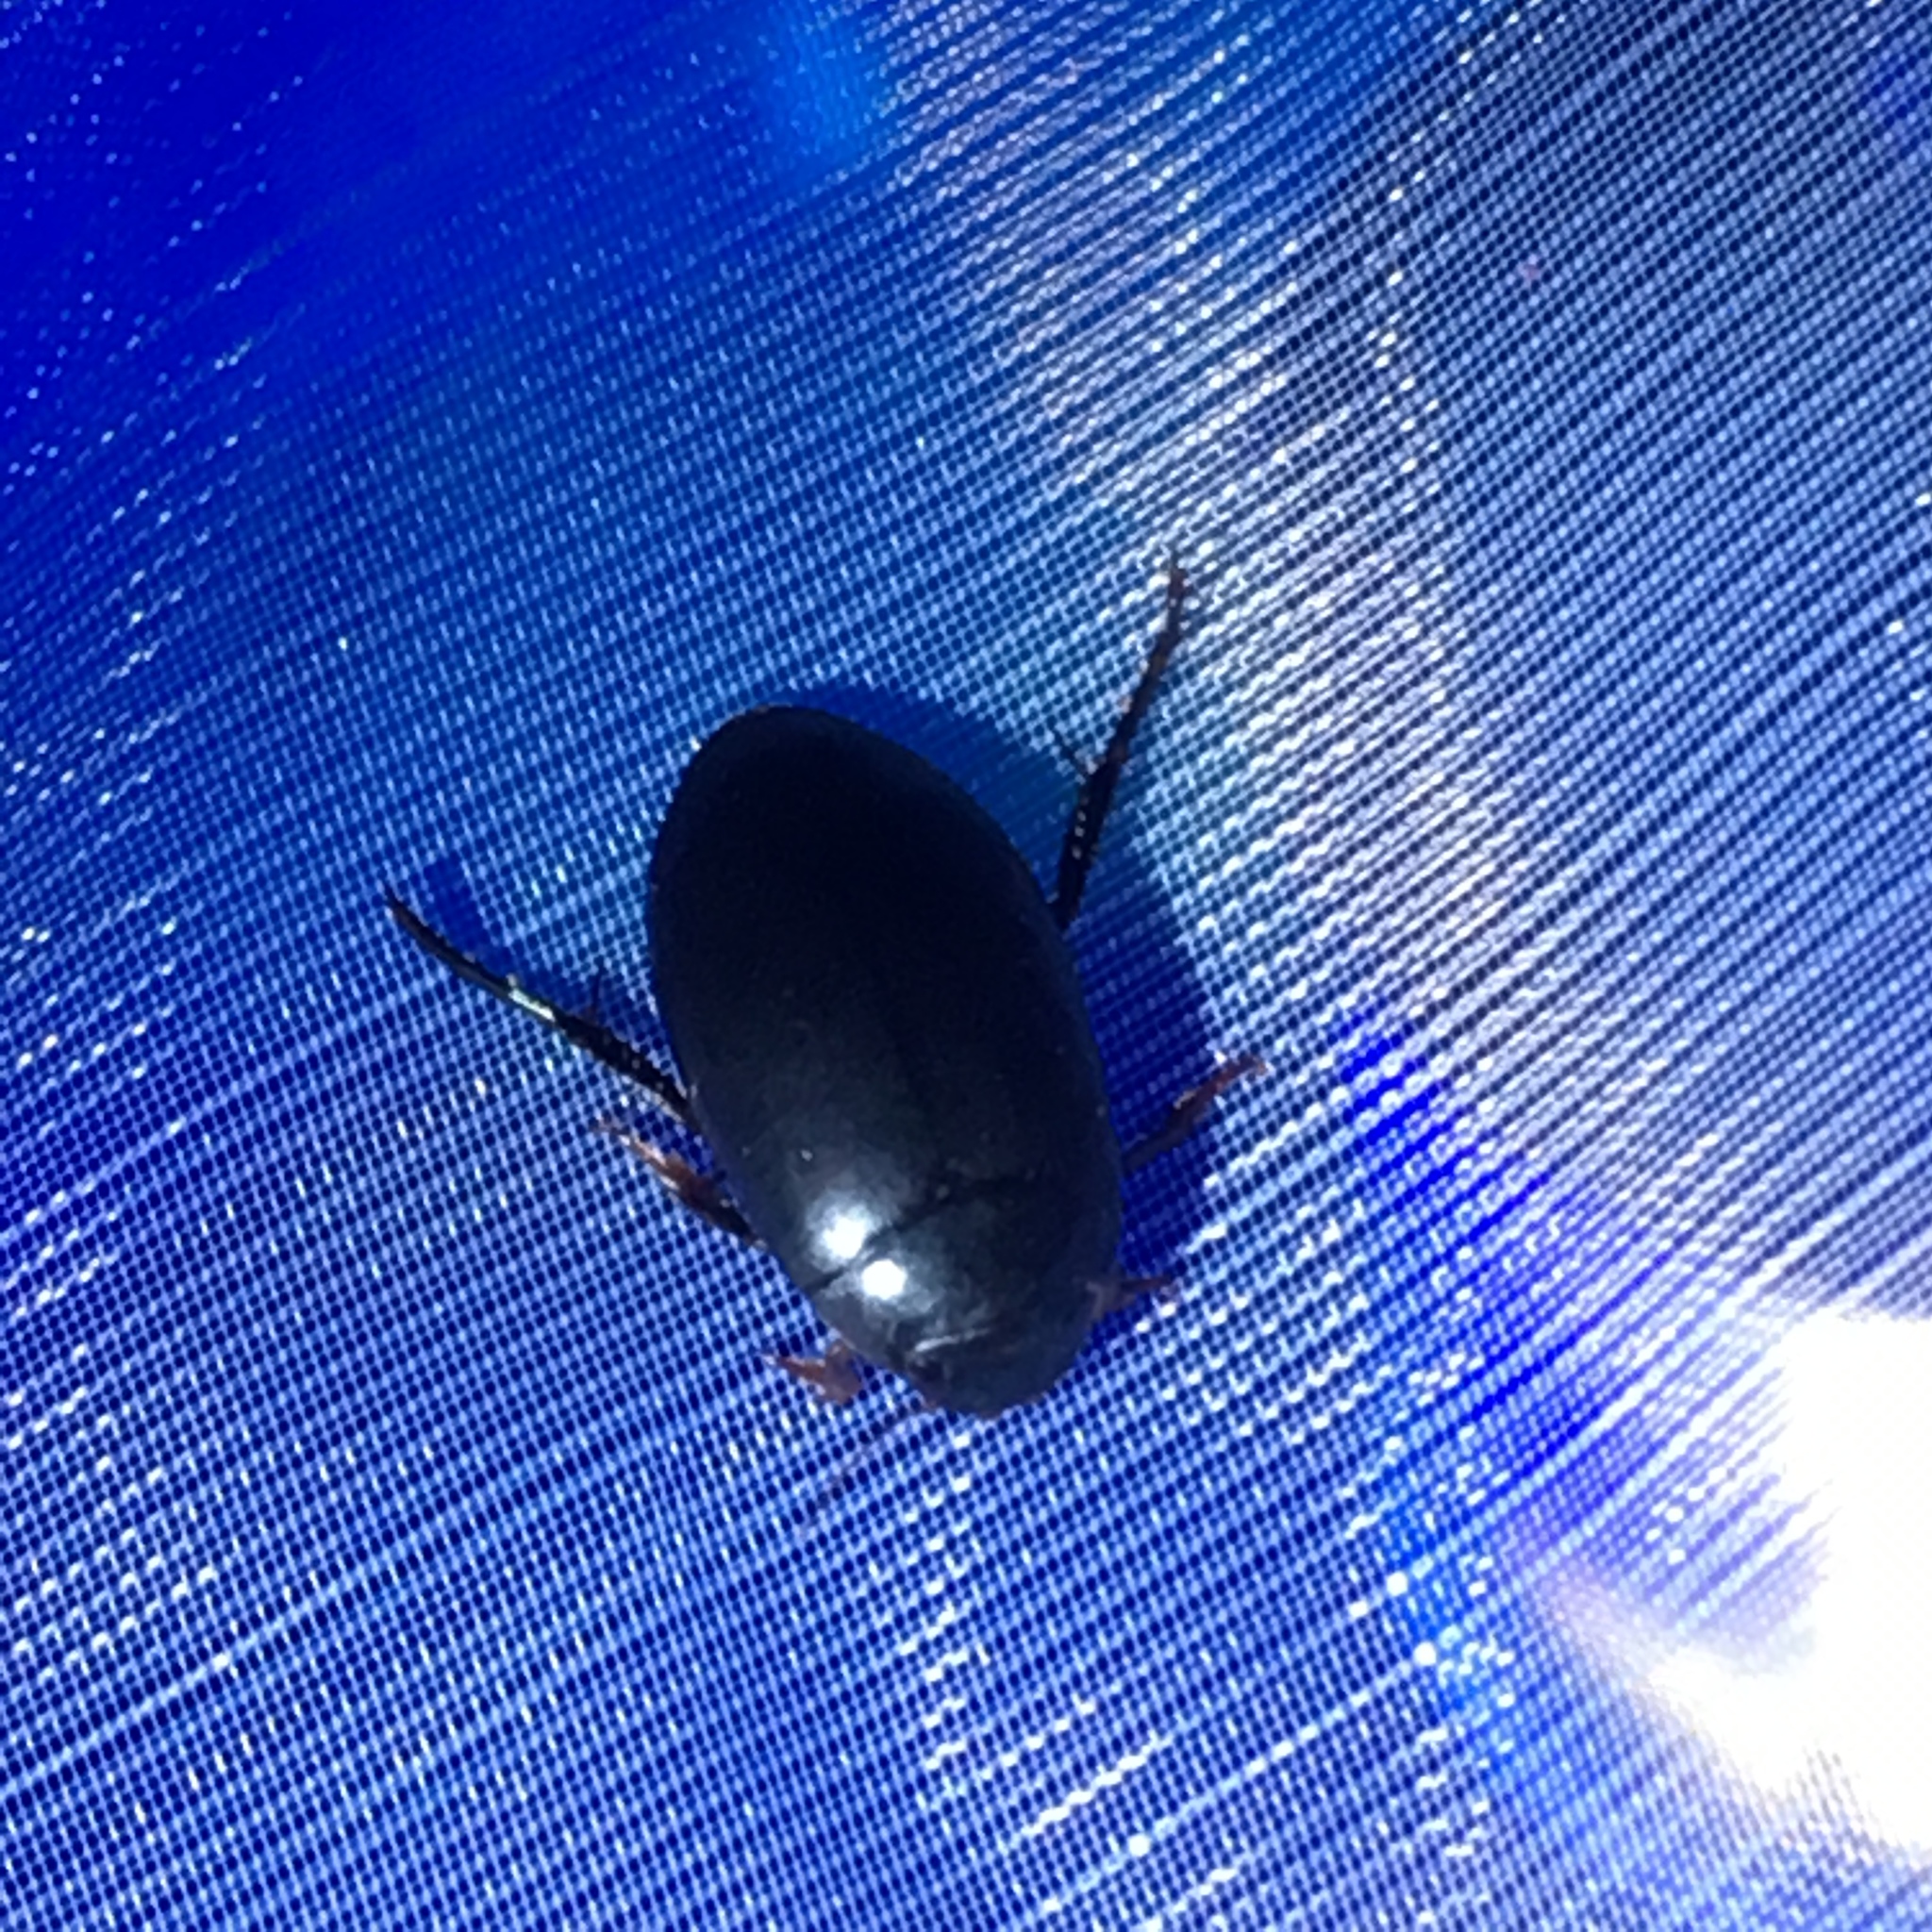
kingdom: Animalia
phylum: Arthropoda
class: Insecta
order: Coleoptera
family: Dytiscidae
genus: Nartus
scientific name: Nartus grapii
